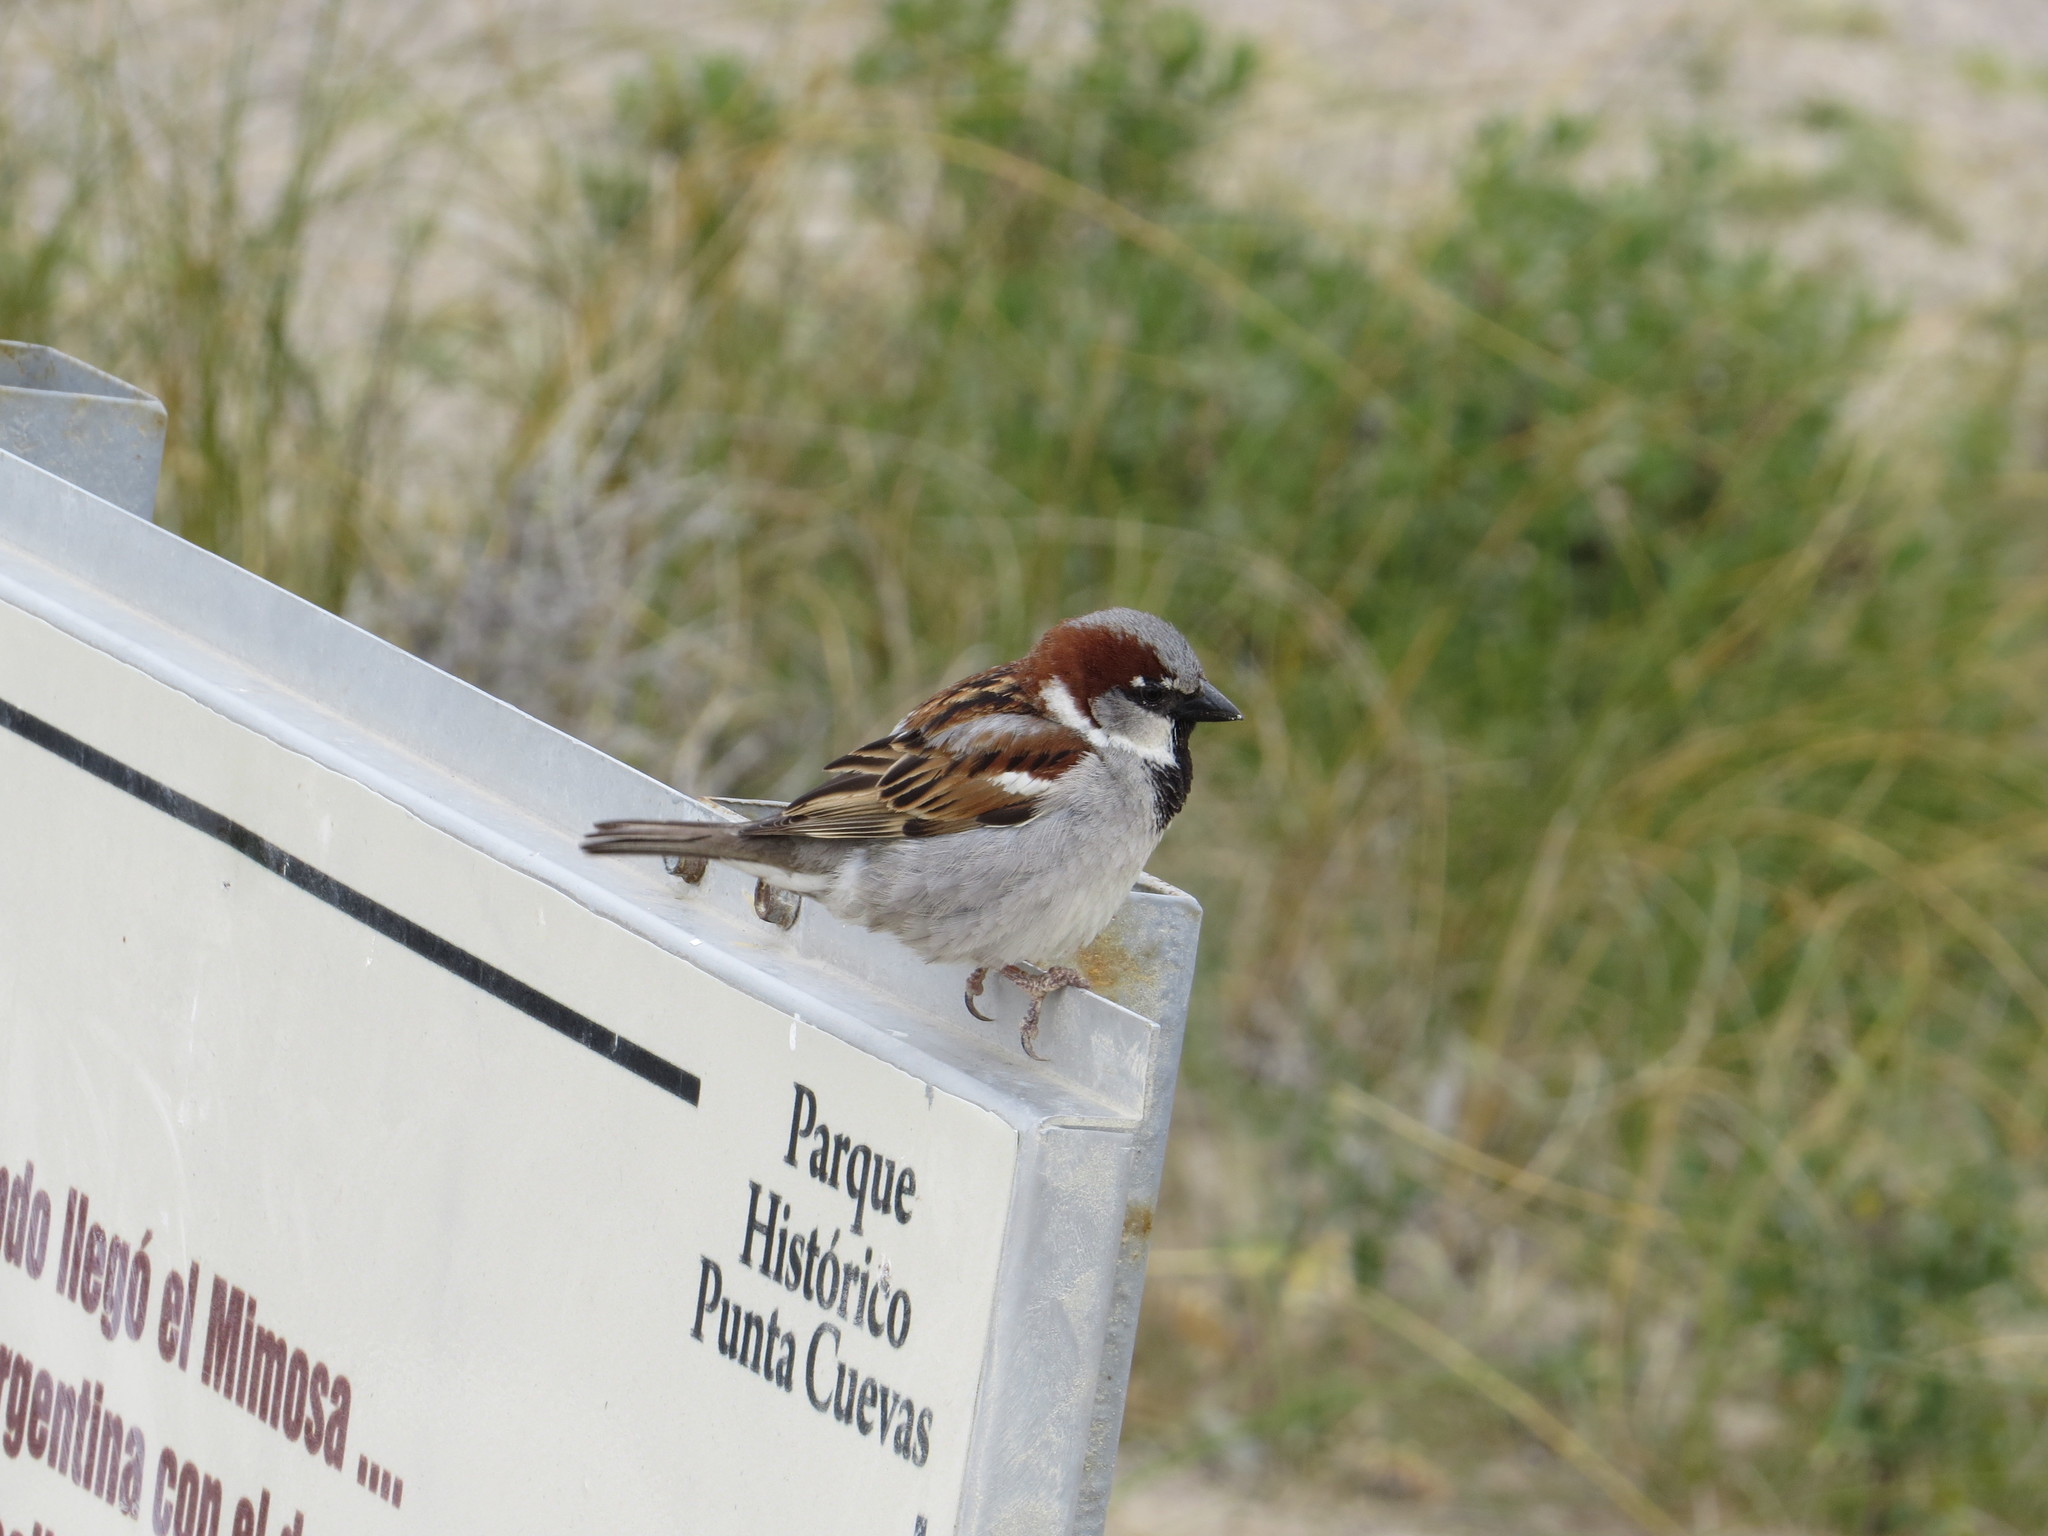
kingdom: Animalia
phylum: Chordata
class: Aves
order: Passeriformes
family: Passeridae
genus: Passer
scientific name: Passer domesticus
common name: House sparrow
